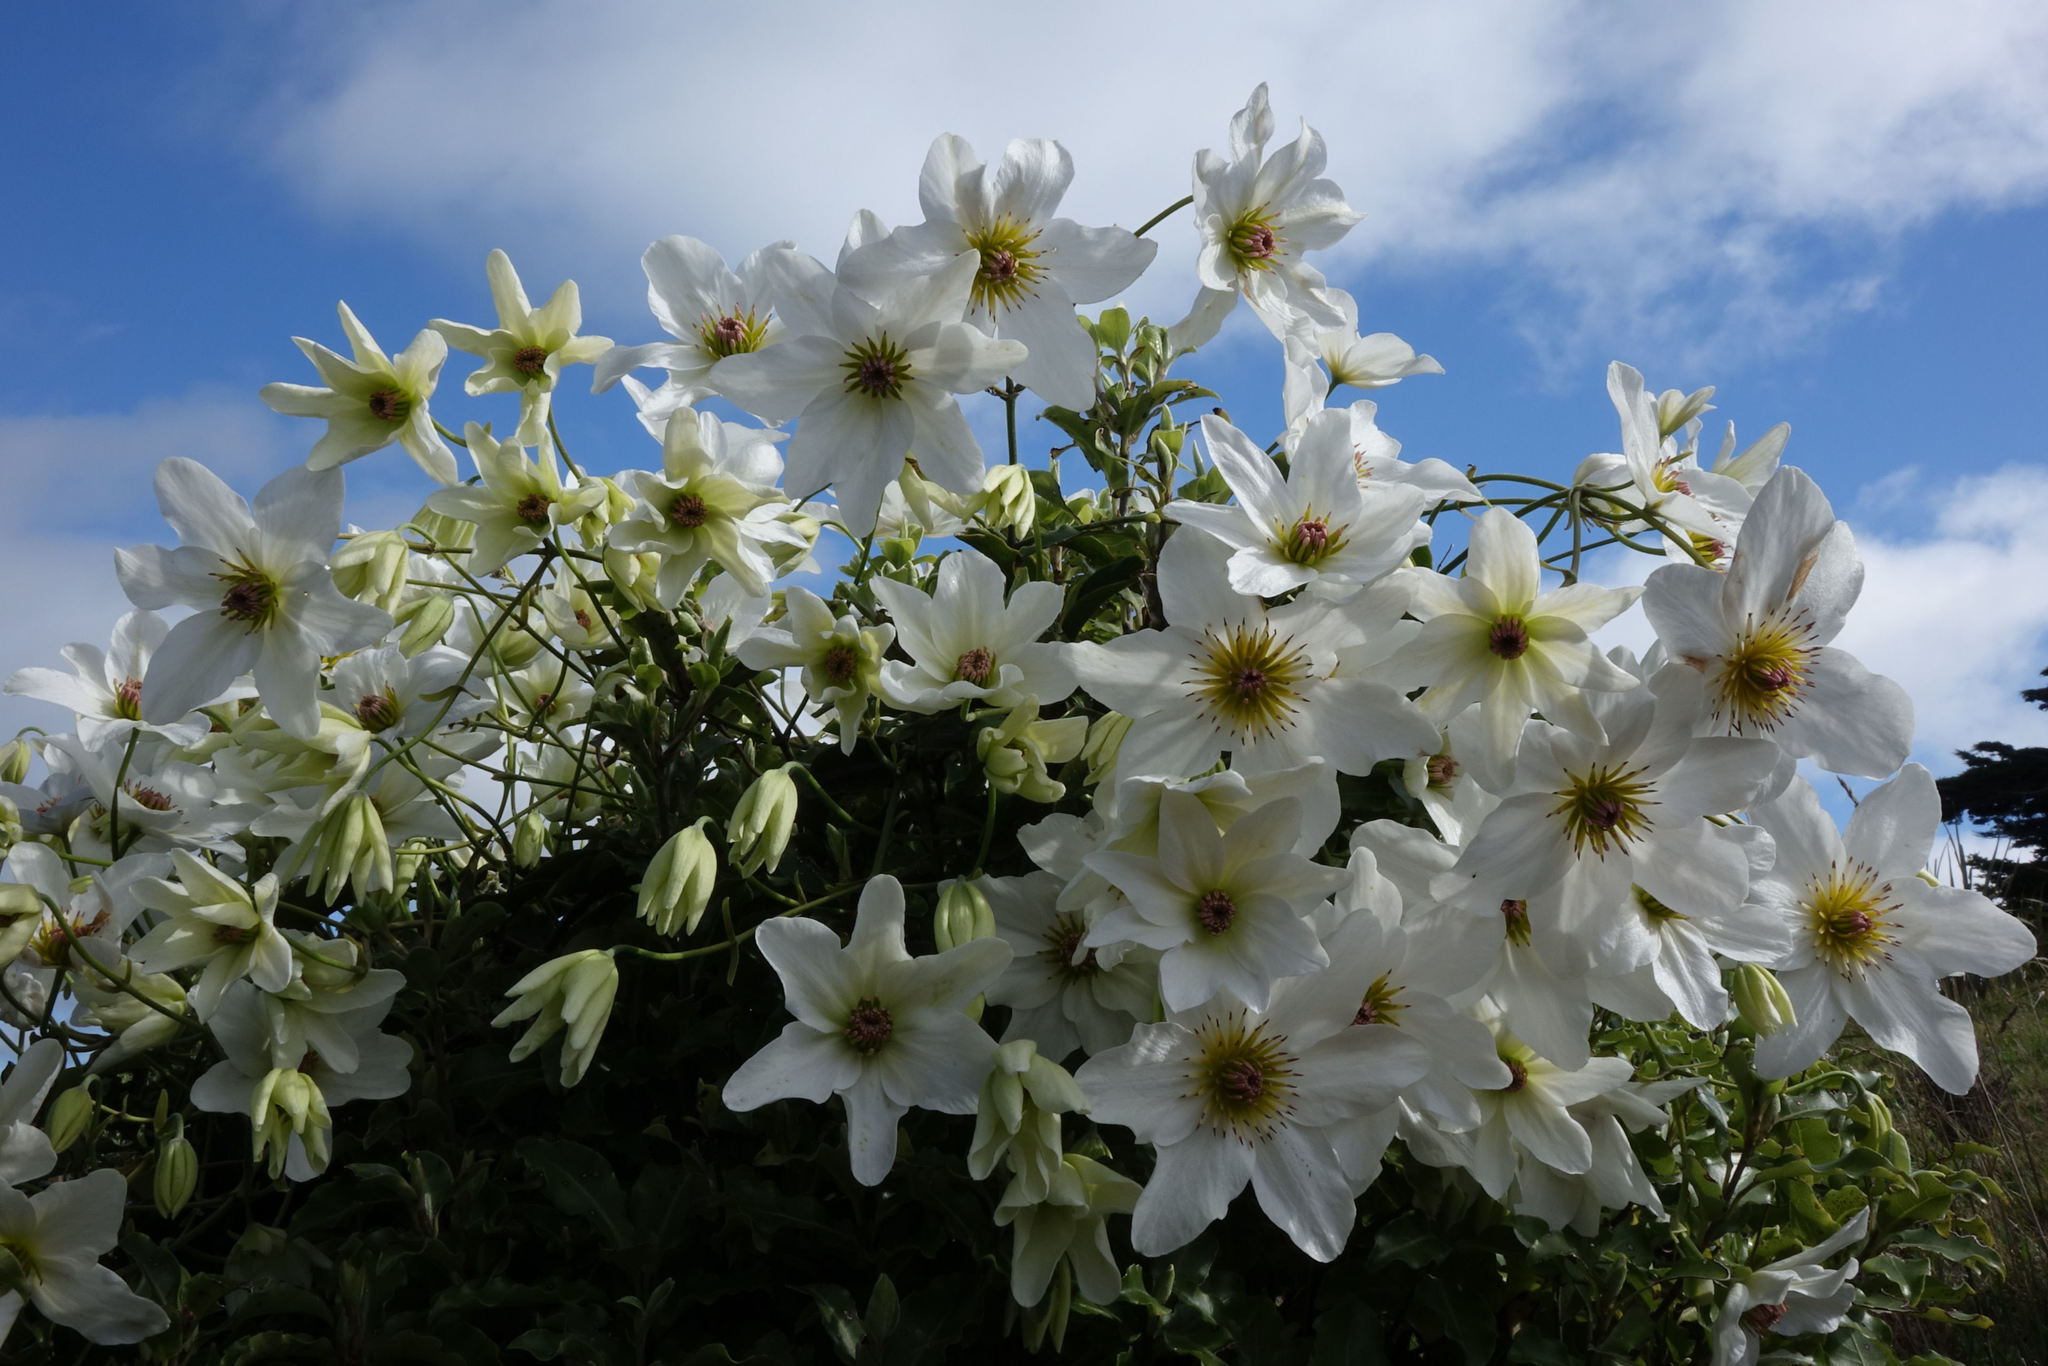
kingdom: Plantae
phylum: Tracheophyta
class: Magnoliopsida
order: Ranunculales
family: Ranunculaceae
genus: Clematis
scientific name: Clematis paniculata
